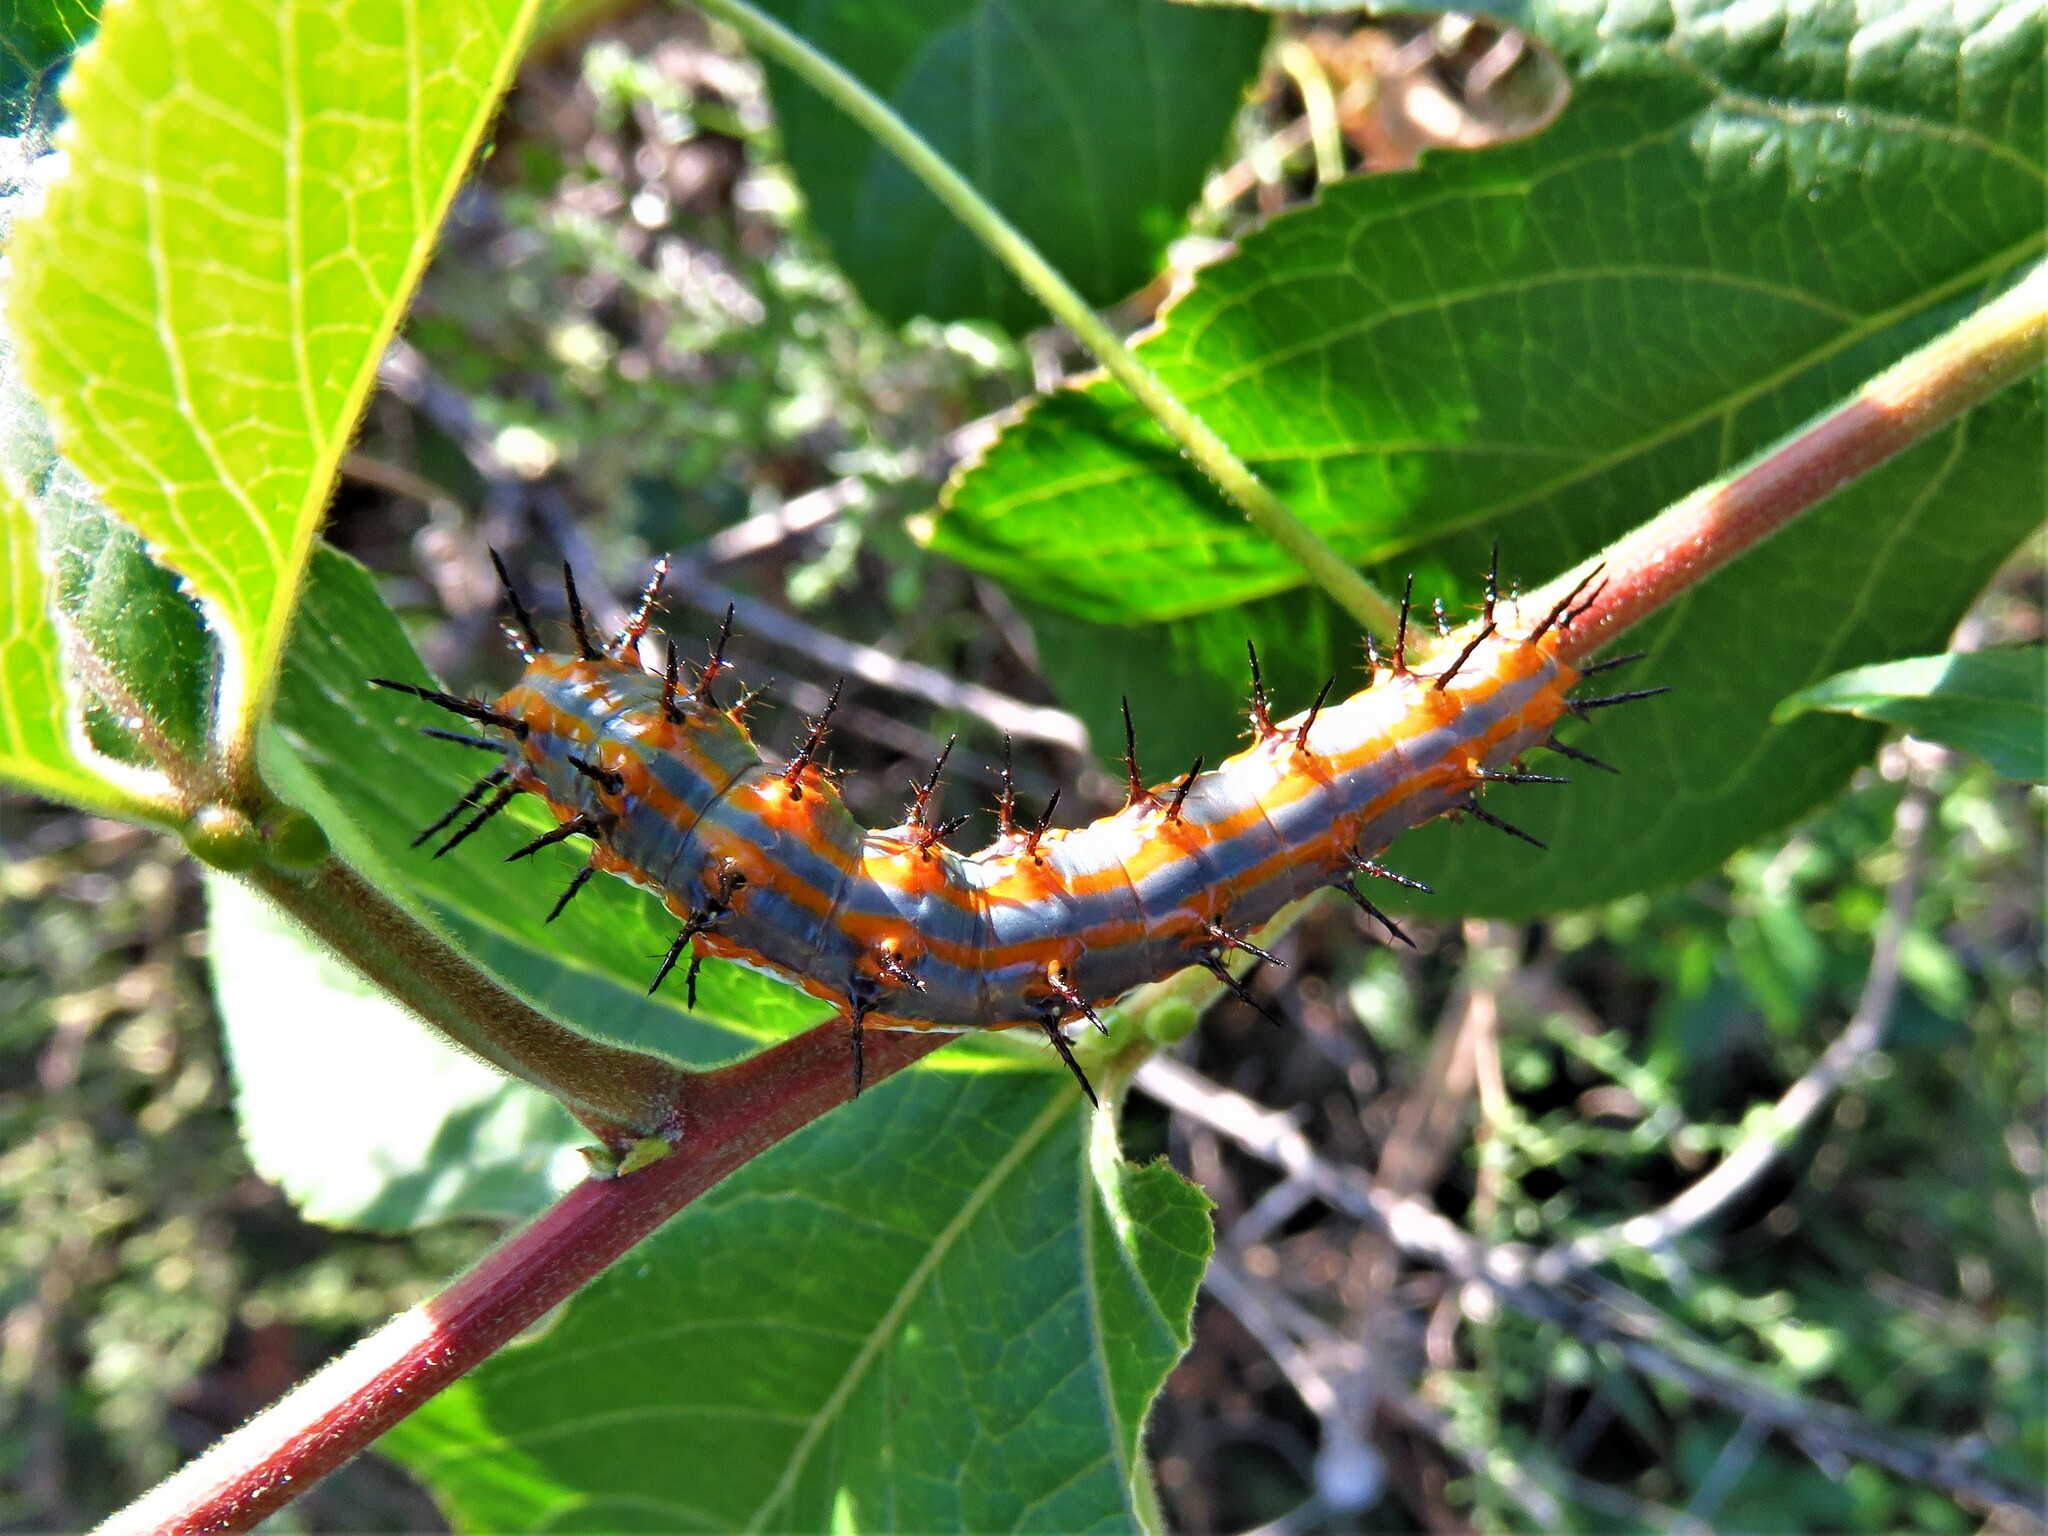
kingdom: Animalia
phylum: Arthropoda
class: Insecta
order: Lepidoptera
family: Nymphalidae
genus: Dione
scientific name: Dione vanillae
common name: Gulf fritillary
